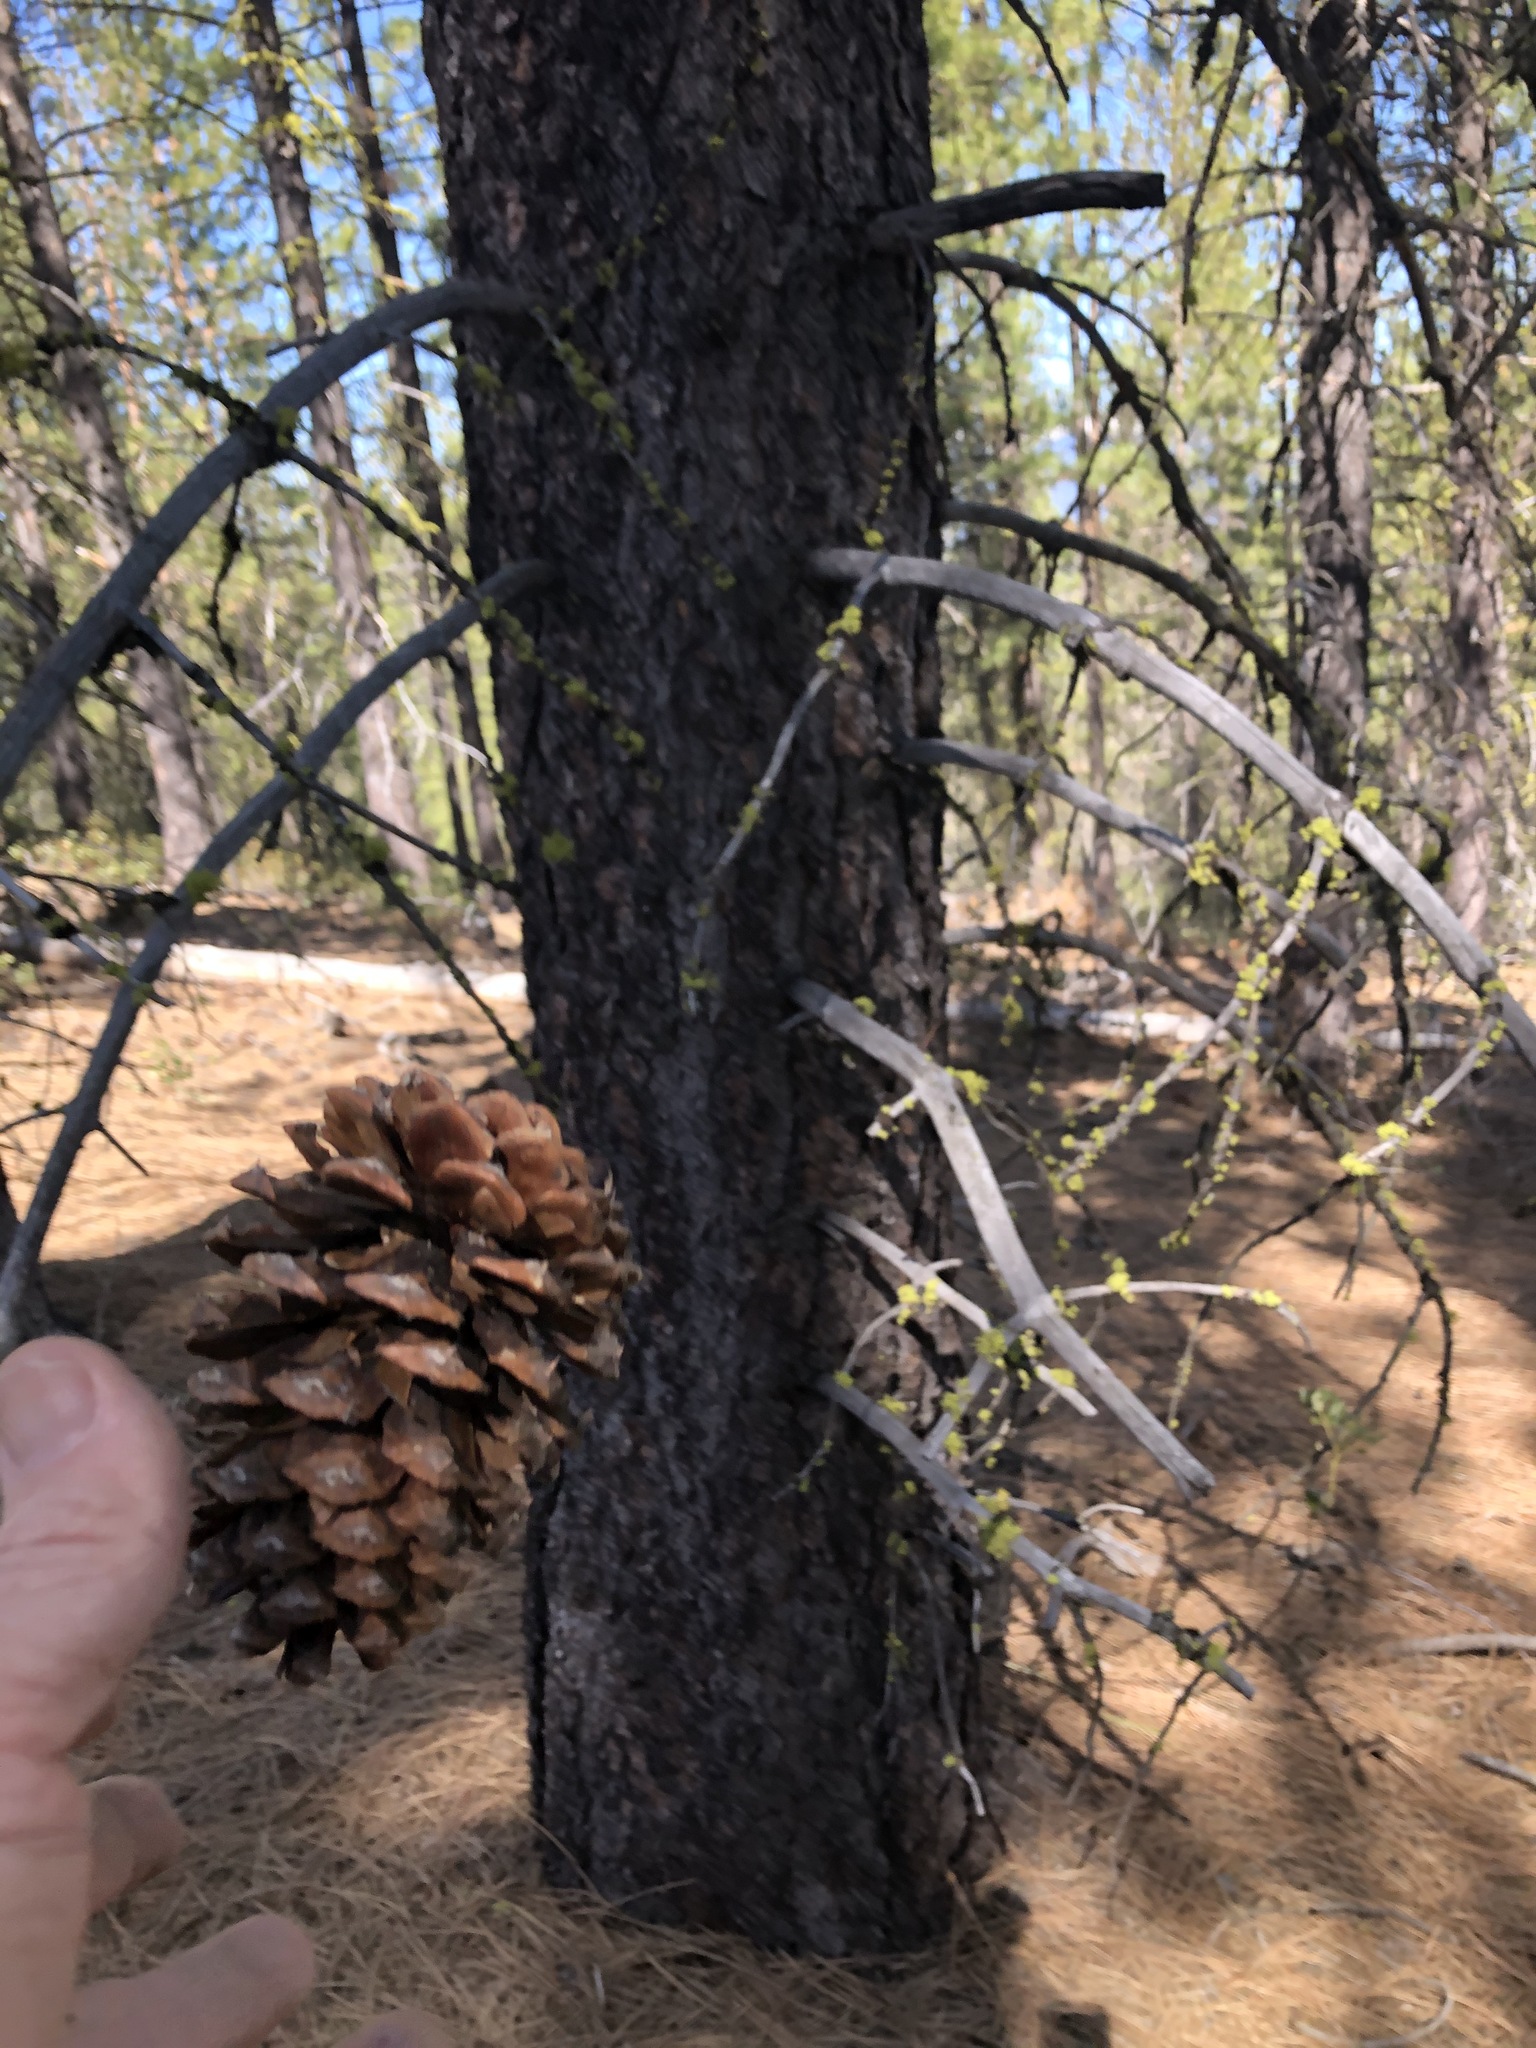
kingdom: Plantae
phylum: Tracheophyta
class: Pinopsida
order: Pinales
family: Pinaceae
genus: Pinus
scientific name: Pinus ponderosa
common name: Western yellow-pine
